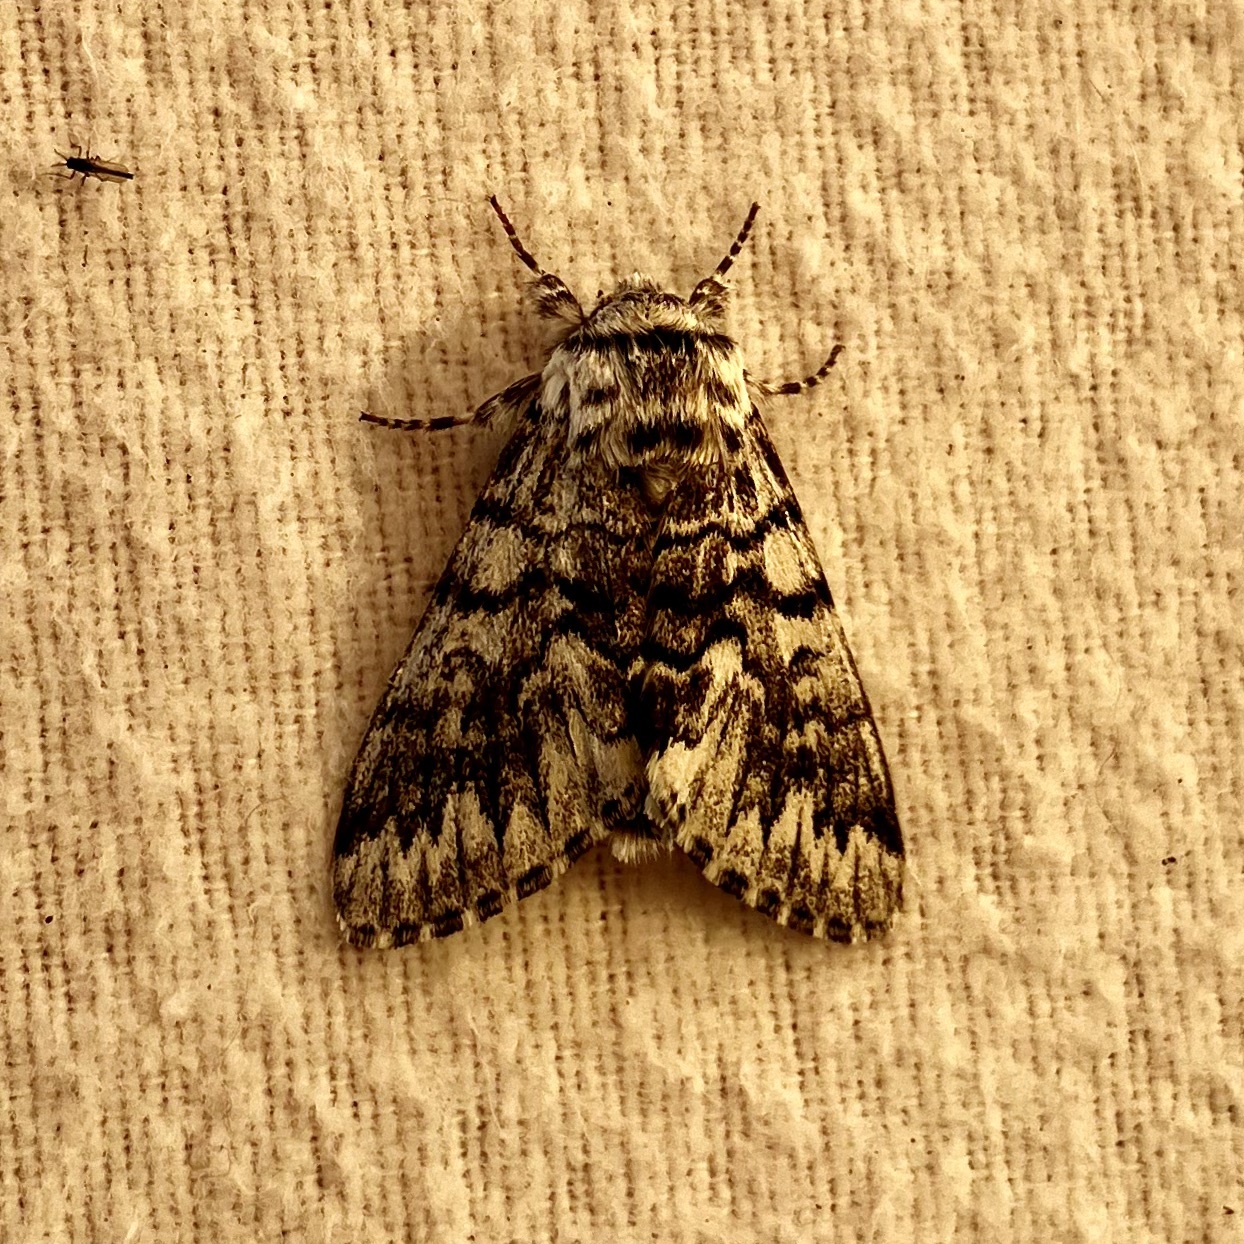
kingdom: Animalia
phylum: Arthropoda
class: Insecta
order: Lepidoptera
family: Noctuidae
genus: Panthea
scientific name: Panthea virginarius
